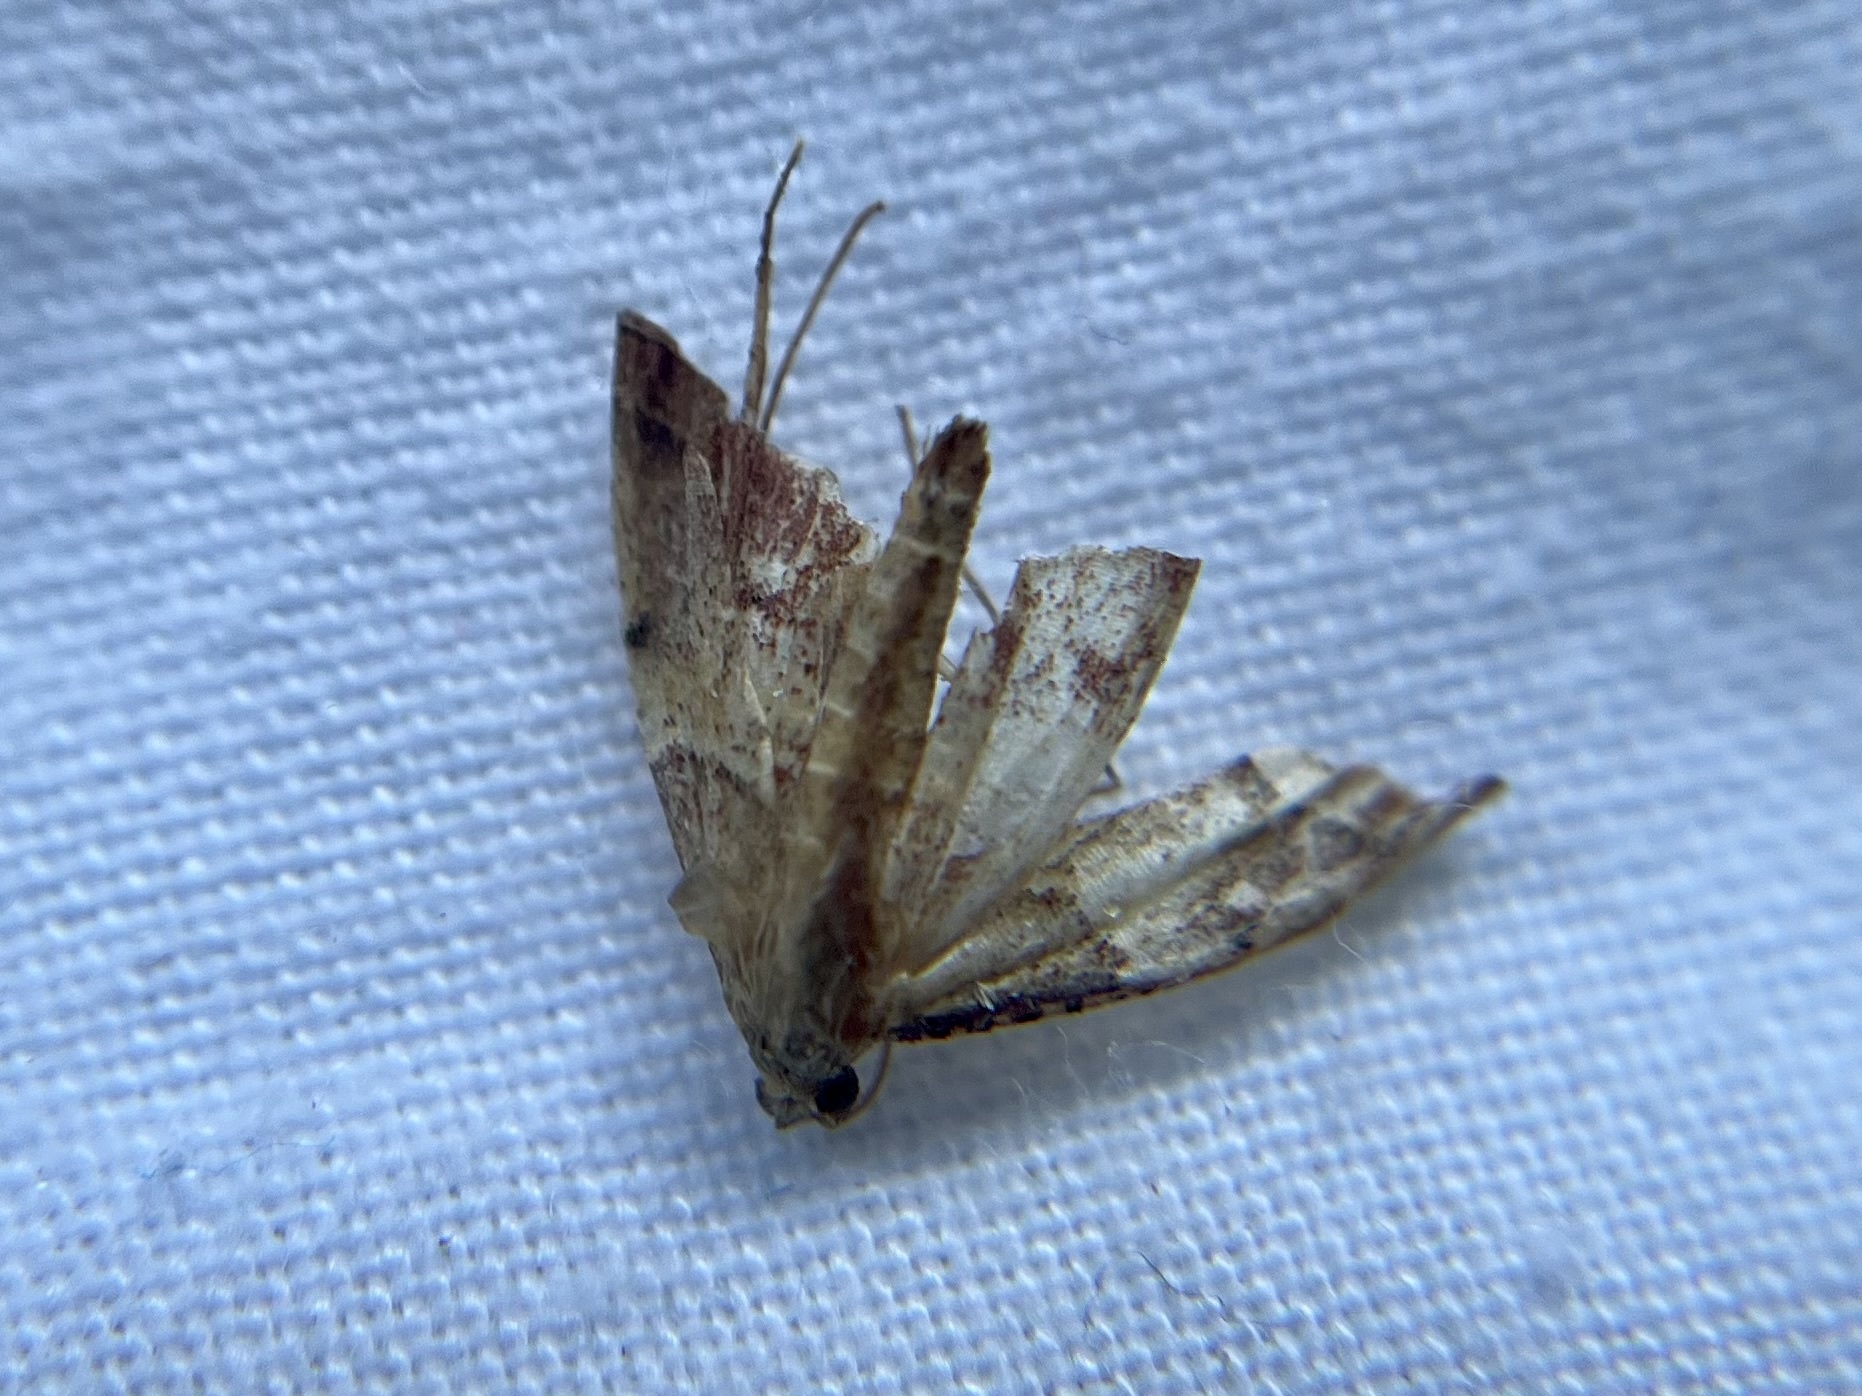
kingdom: Animalia
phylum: Arthropoda
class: Insecta
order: Lepidoptera
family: Pyralidae
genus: Endotricha
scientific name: Endotricha flammealis
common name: Rosy tabby
